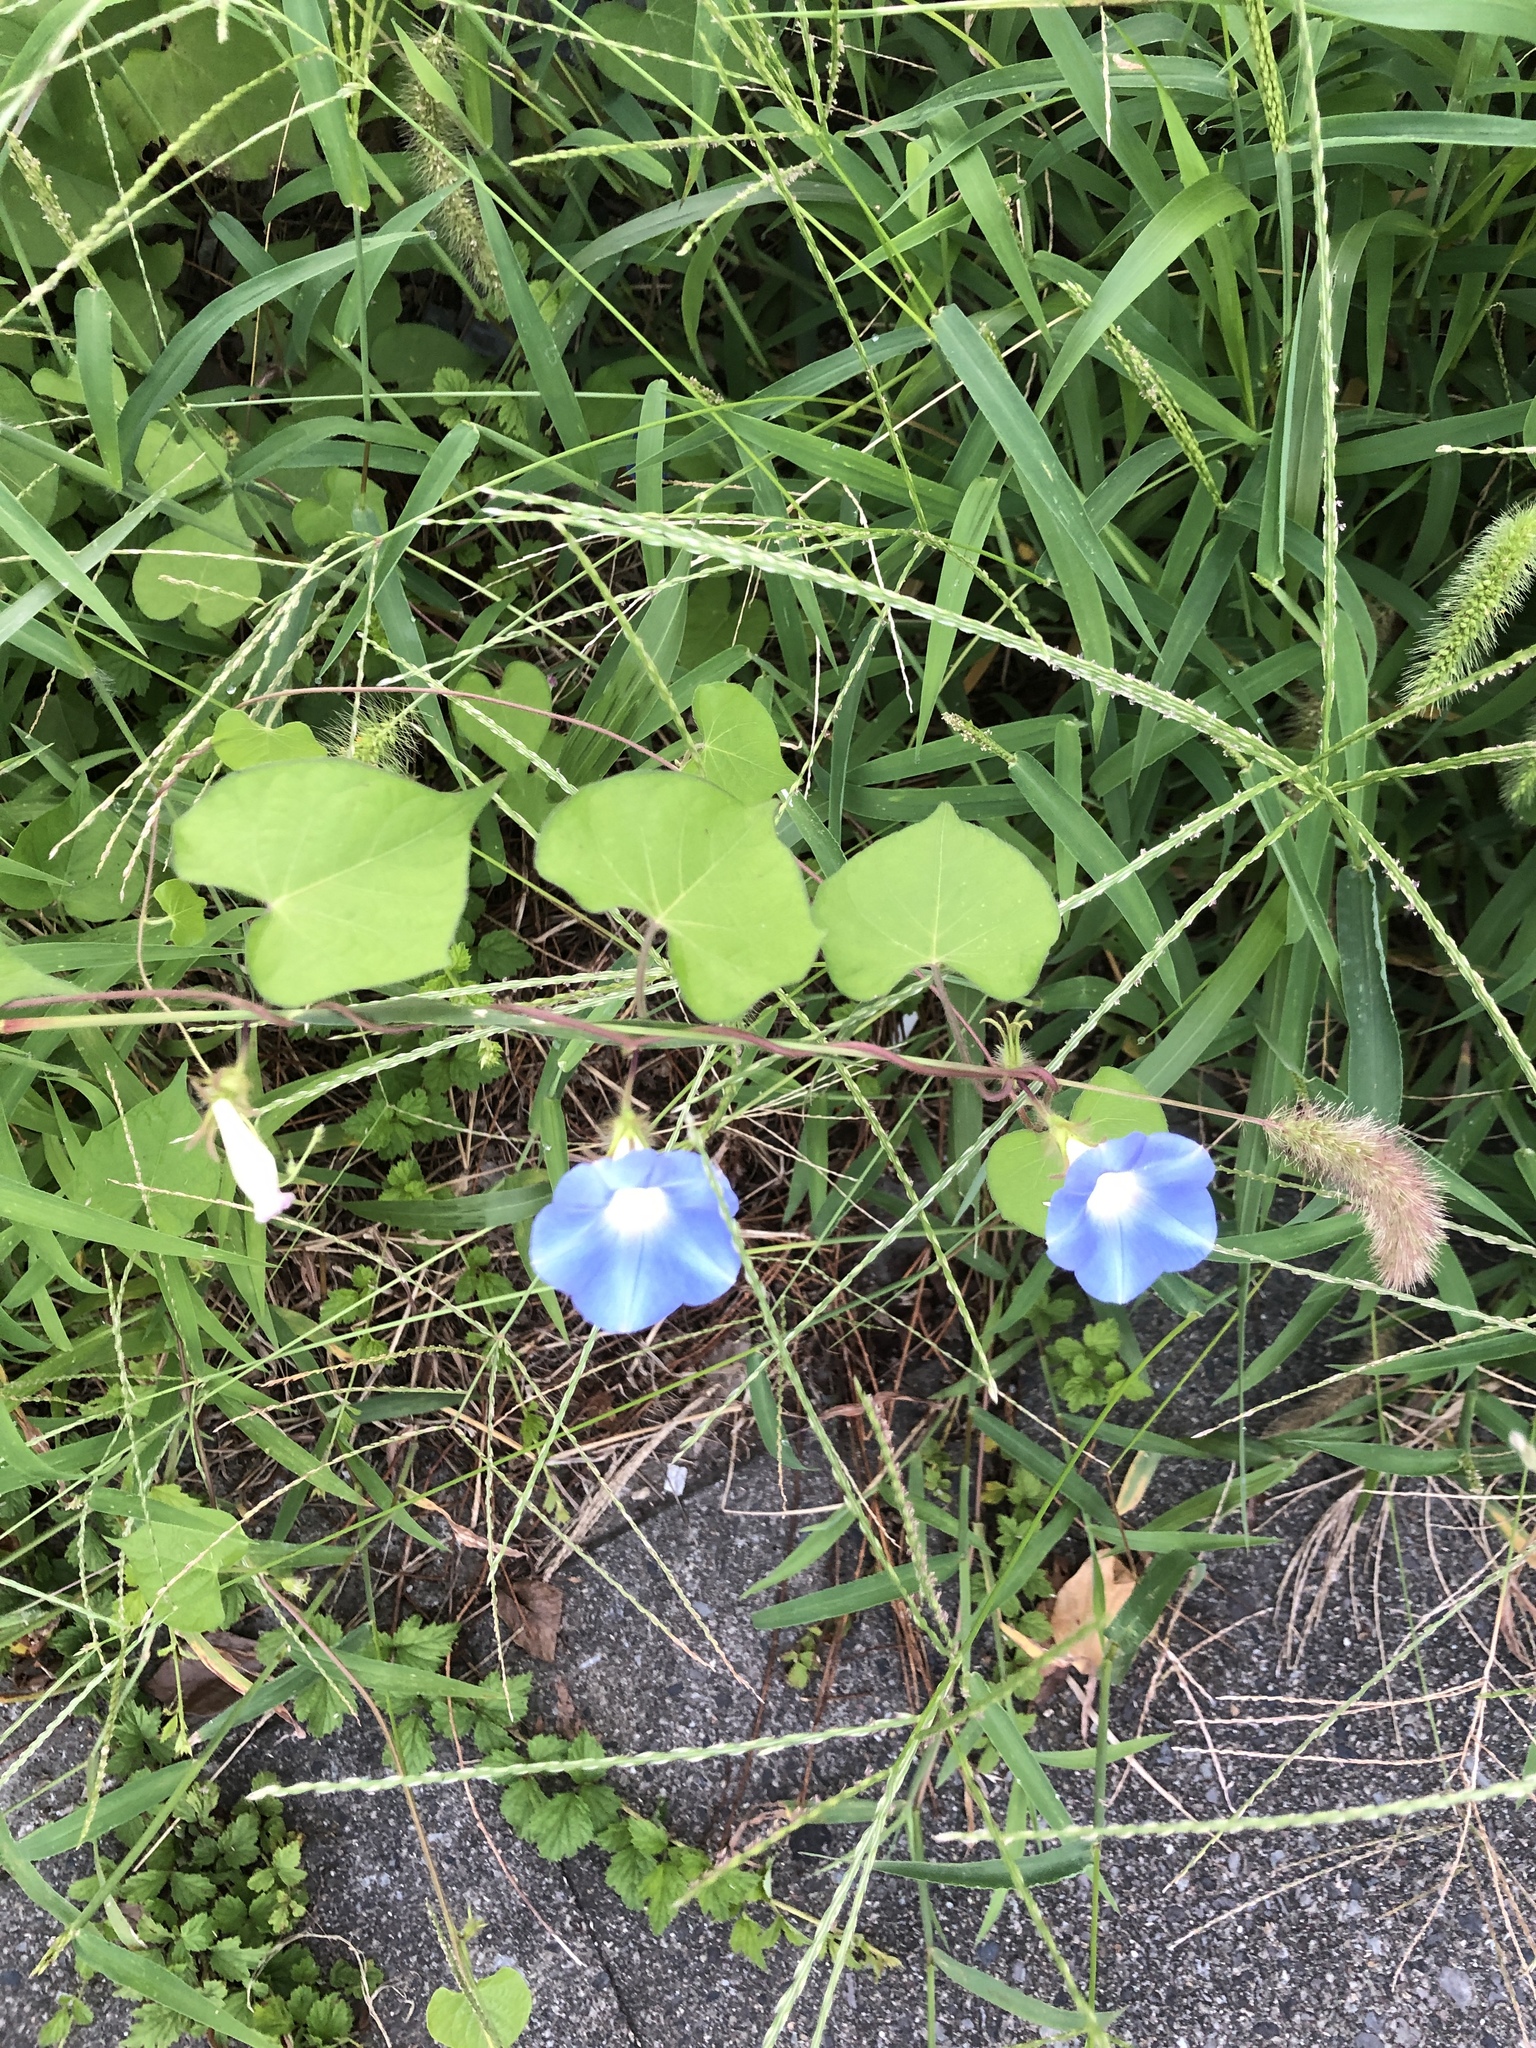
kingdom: Plantae
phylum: Tracheophyta
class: Magnoliopsida
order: Solanales
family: Convolvulaceae
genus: Ipomoea
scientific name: Ipomoea hederacea
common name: Ivy-leaved morning-glory
